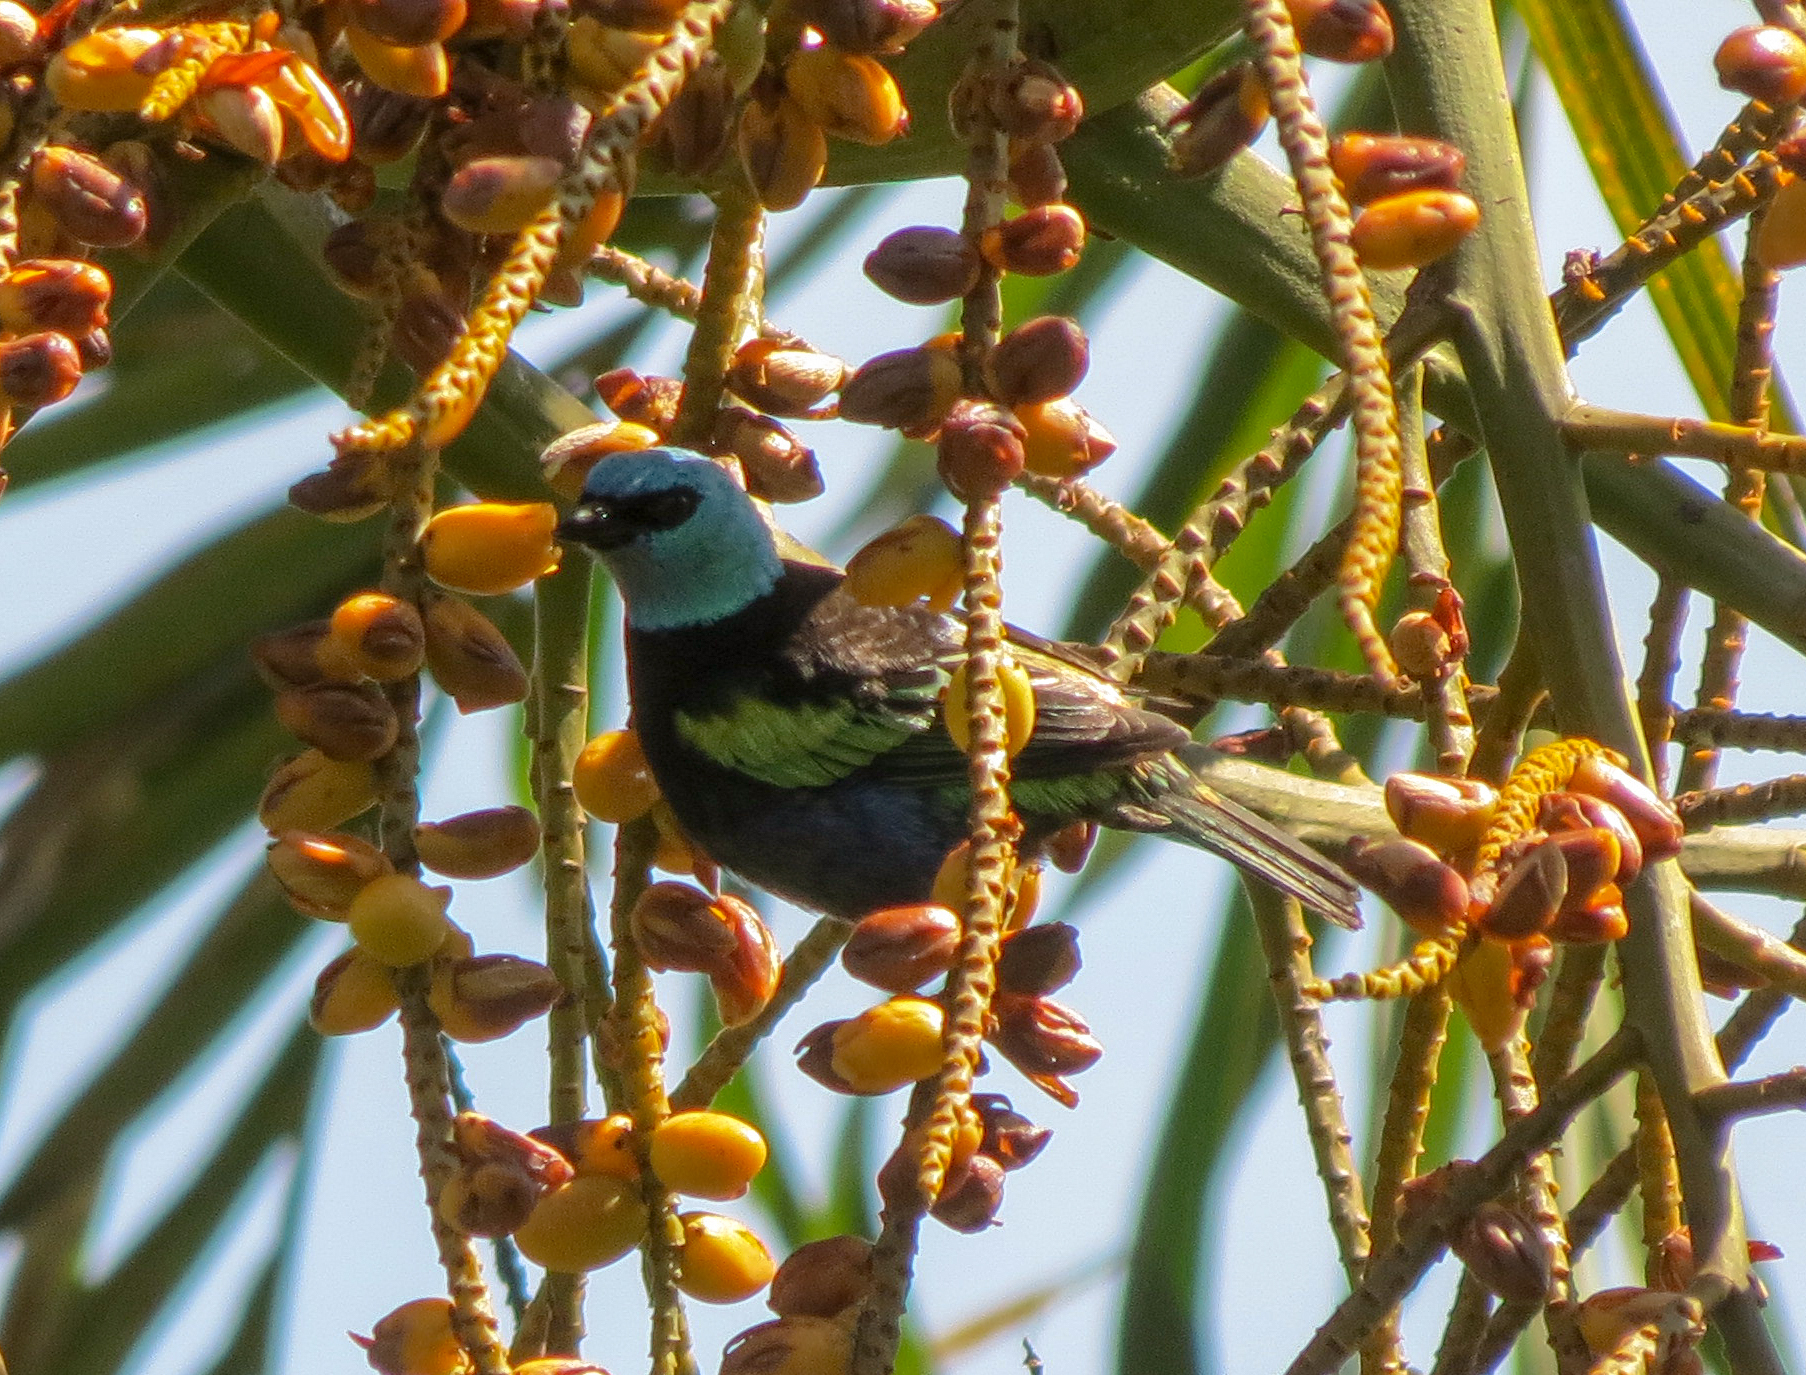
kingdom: Animalia
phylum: Chordata
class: Aves
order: Passeriformes
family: Thraupidae
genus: Stilpnia
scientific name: Stilpnia cyanicollis
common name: Blue-necked tanager
